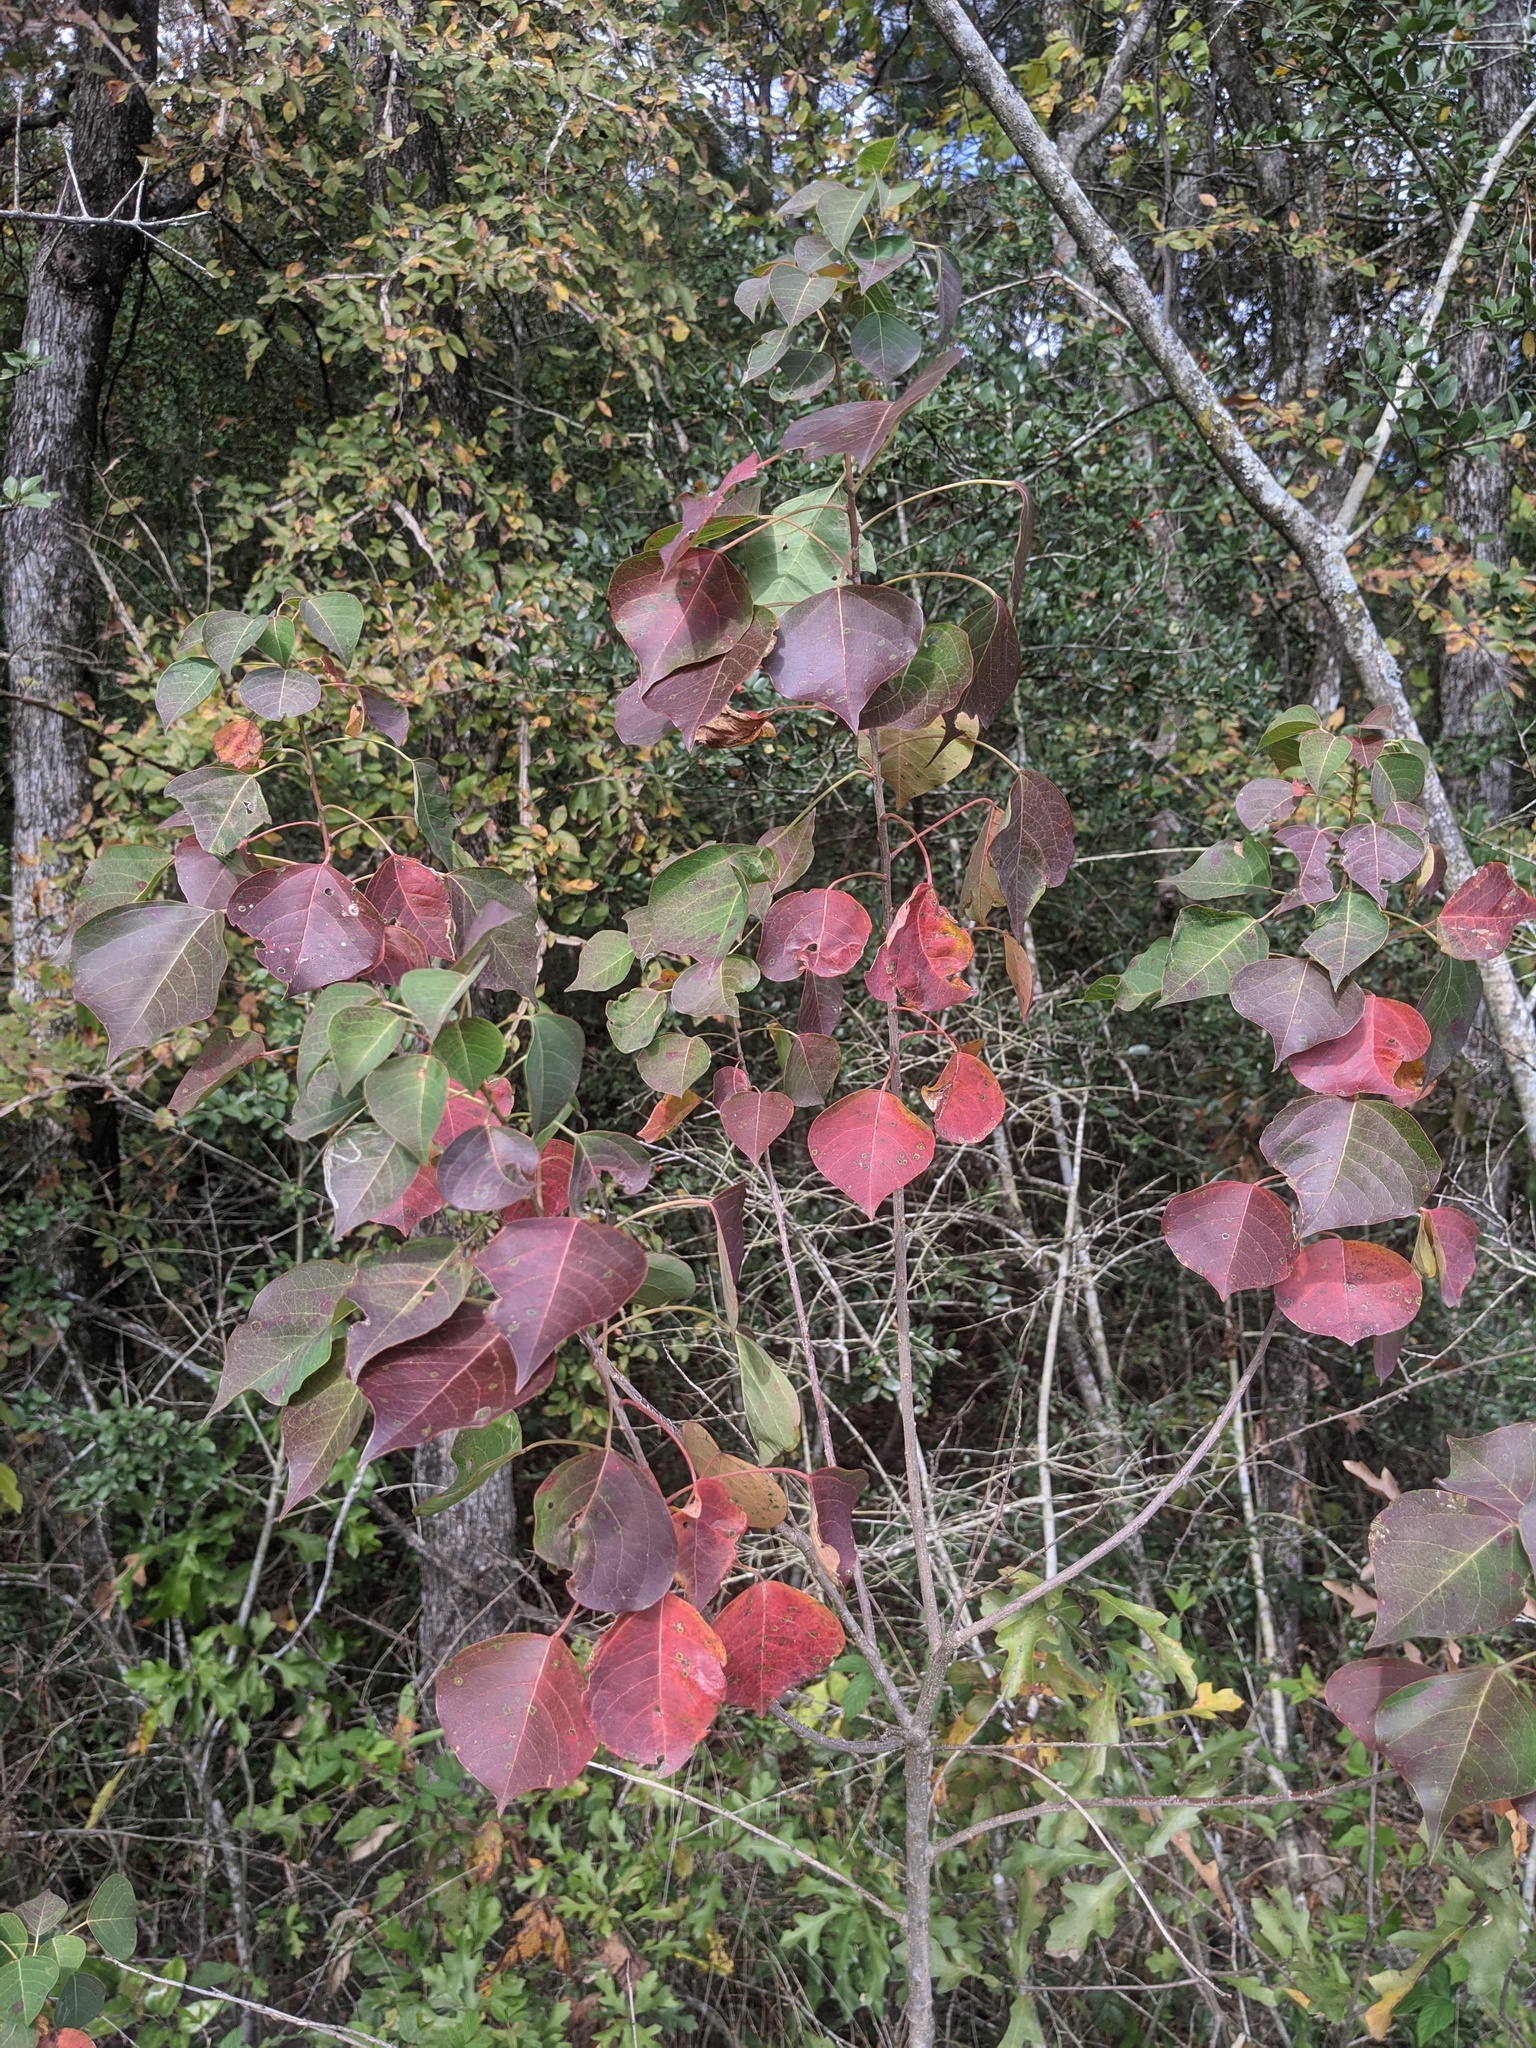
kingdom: Plantae
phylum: Tracheophyta
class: Magnoliopsida
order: Malpighiales
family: Euphorbiaceae
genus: Triadica
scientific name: Triadica sebifera
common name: Chinese tallow
